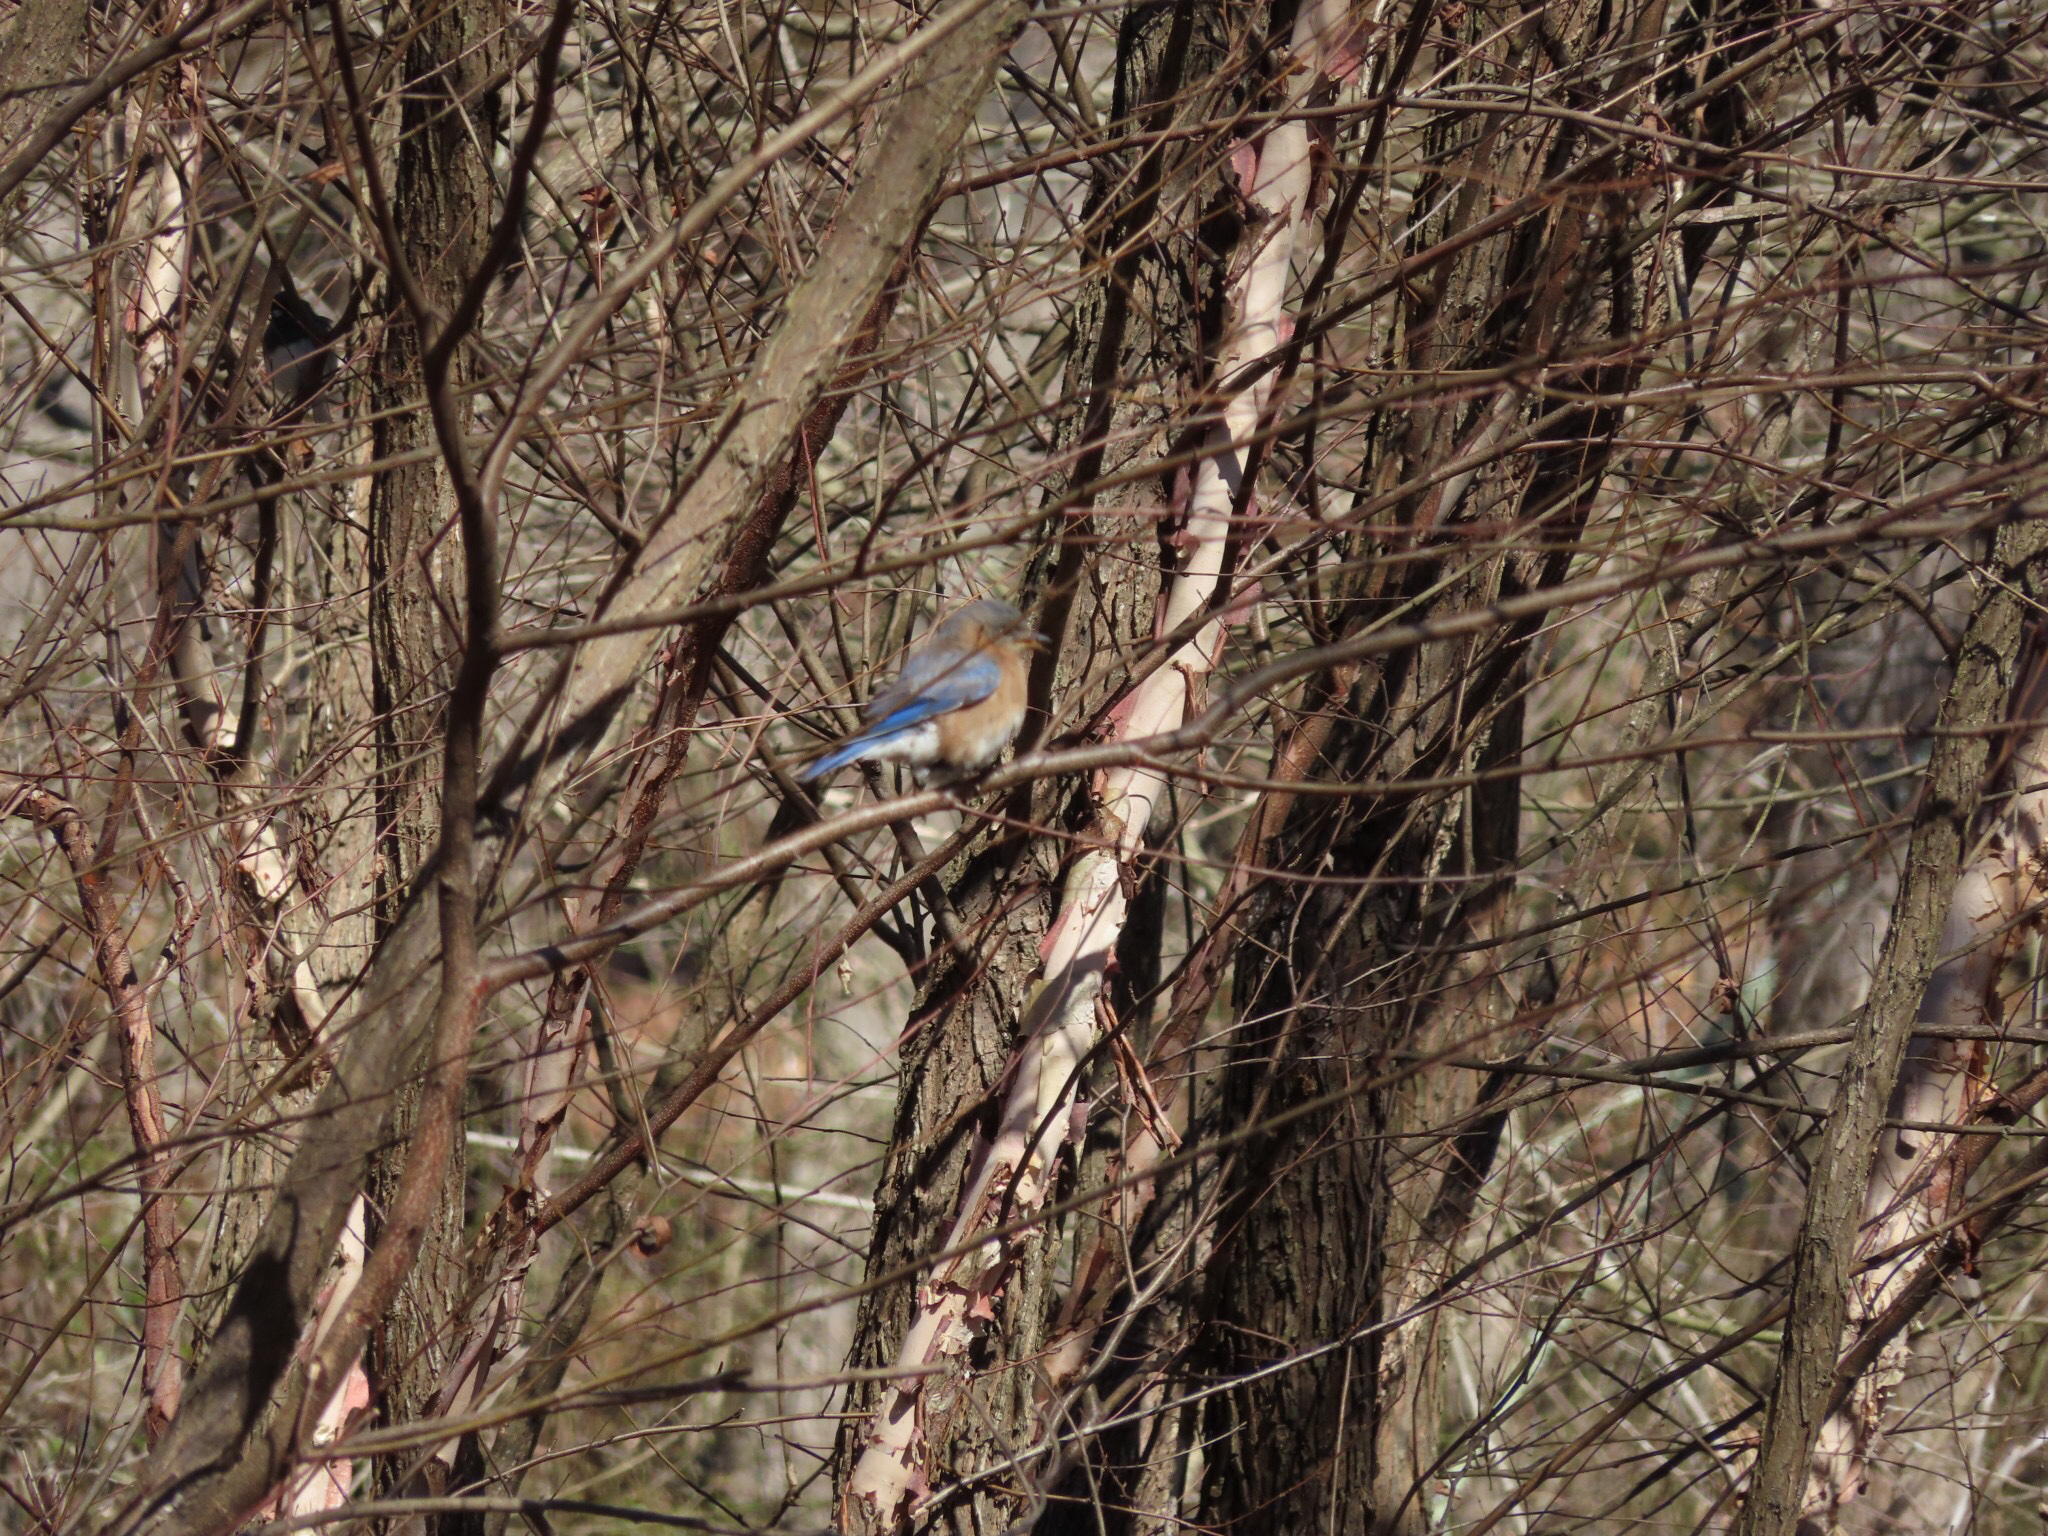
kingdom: Animalia
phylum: Chordata
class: Aves
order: Passeriformes
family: Turdidae
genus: Sialia
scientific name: Sialia sialis
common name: Eastern bluebird
